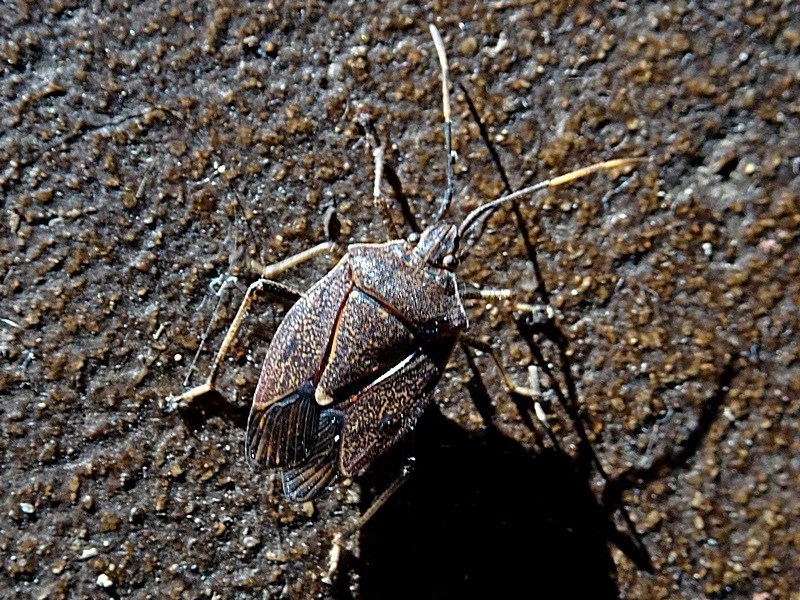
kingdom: Animalia
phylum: Arthropoda
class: Insecta
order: Hemiptera
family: Pentatomidae
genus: Poecilometis
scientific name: Poecilometis
